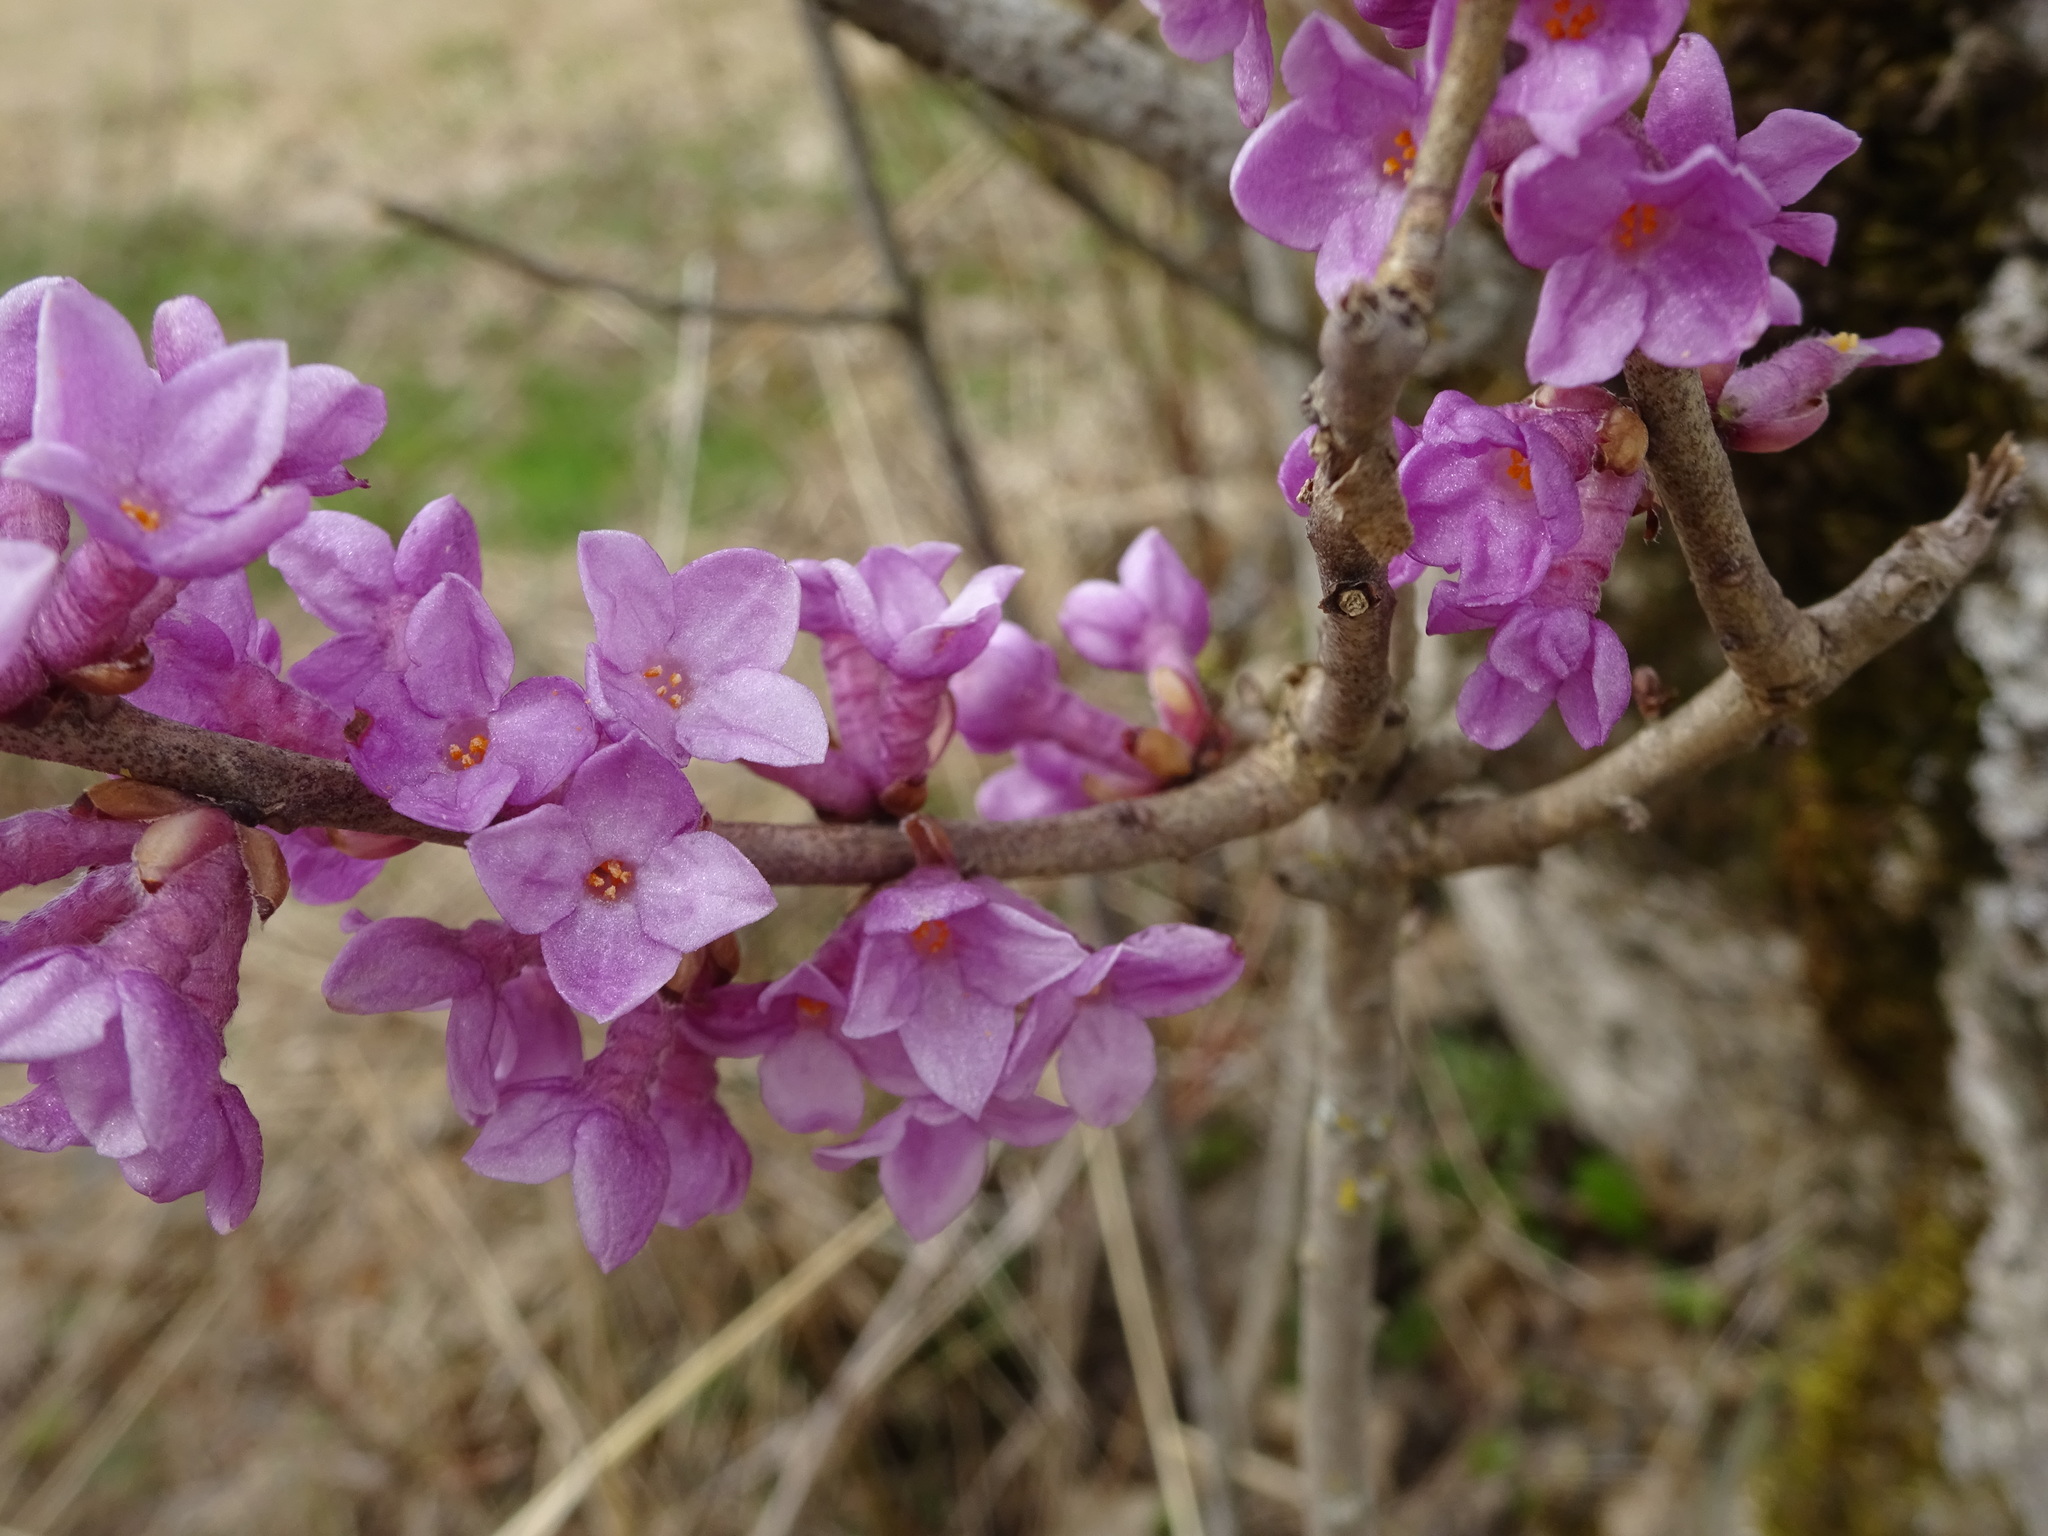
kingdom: Plantae
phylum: Tracheophyta
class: Magnoliopsida
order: Malvales
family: Thymelaeaceae
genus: Daphne
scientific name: Daphne mezereum
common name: Mezereon
